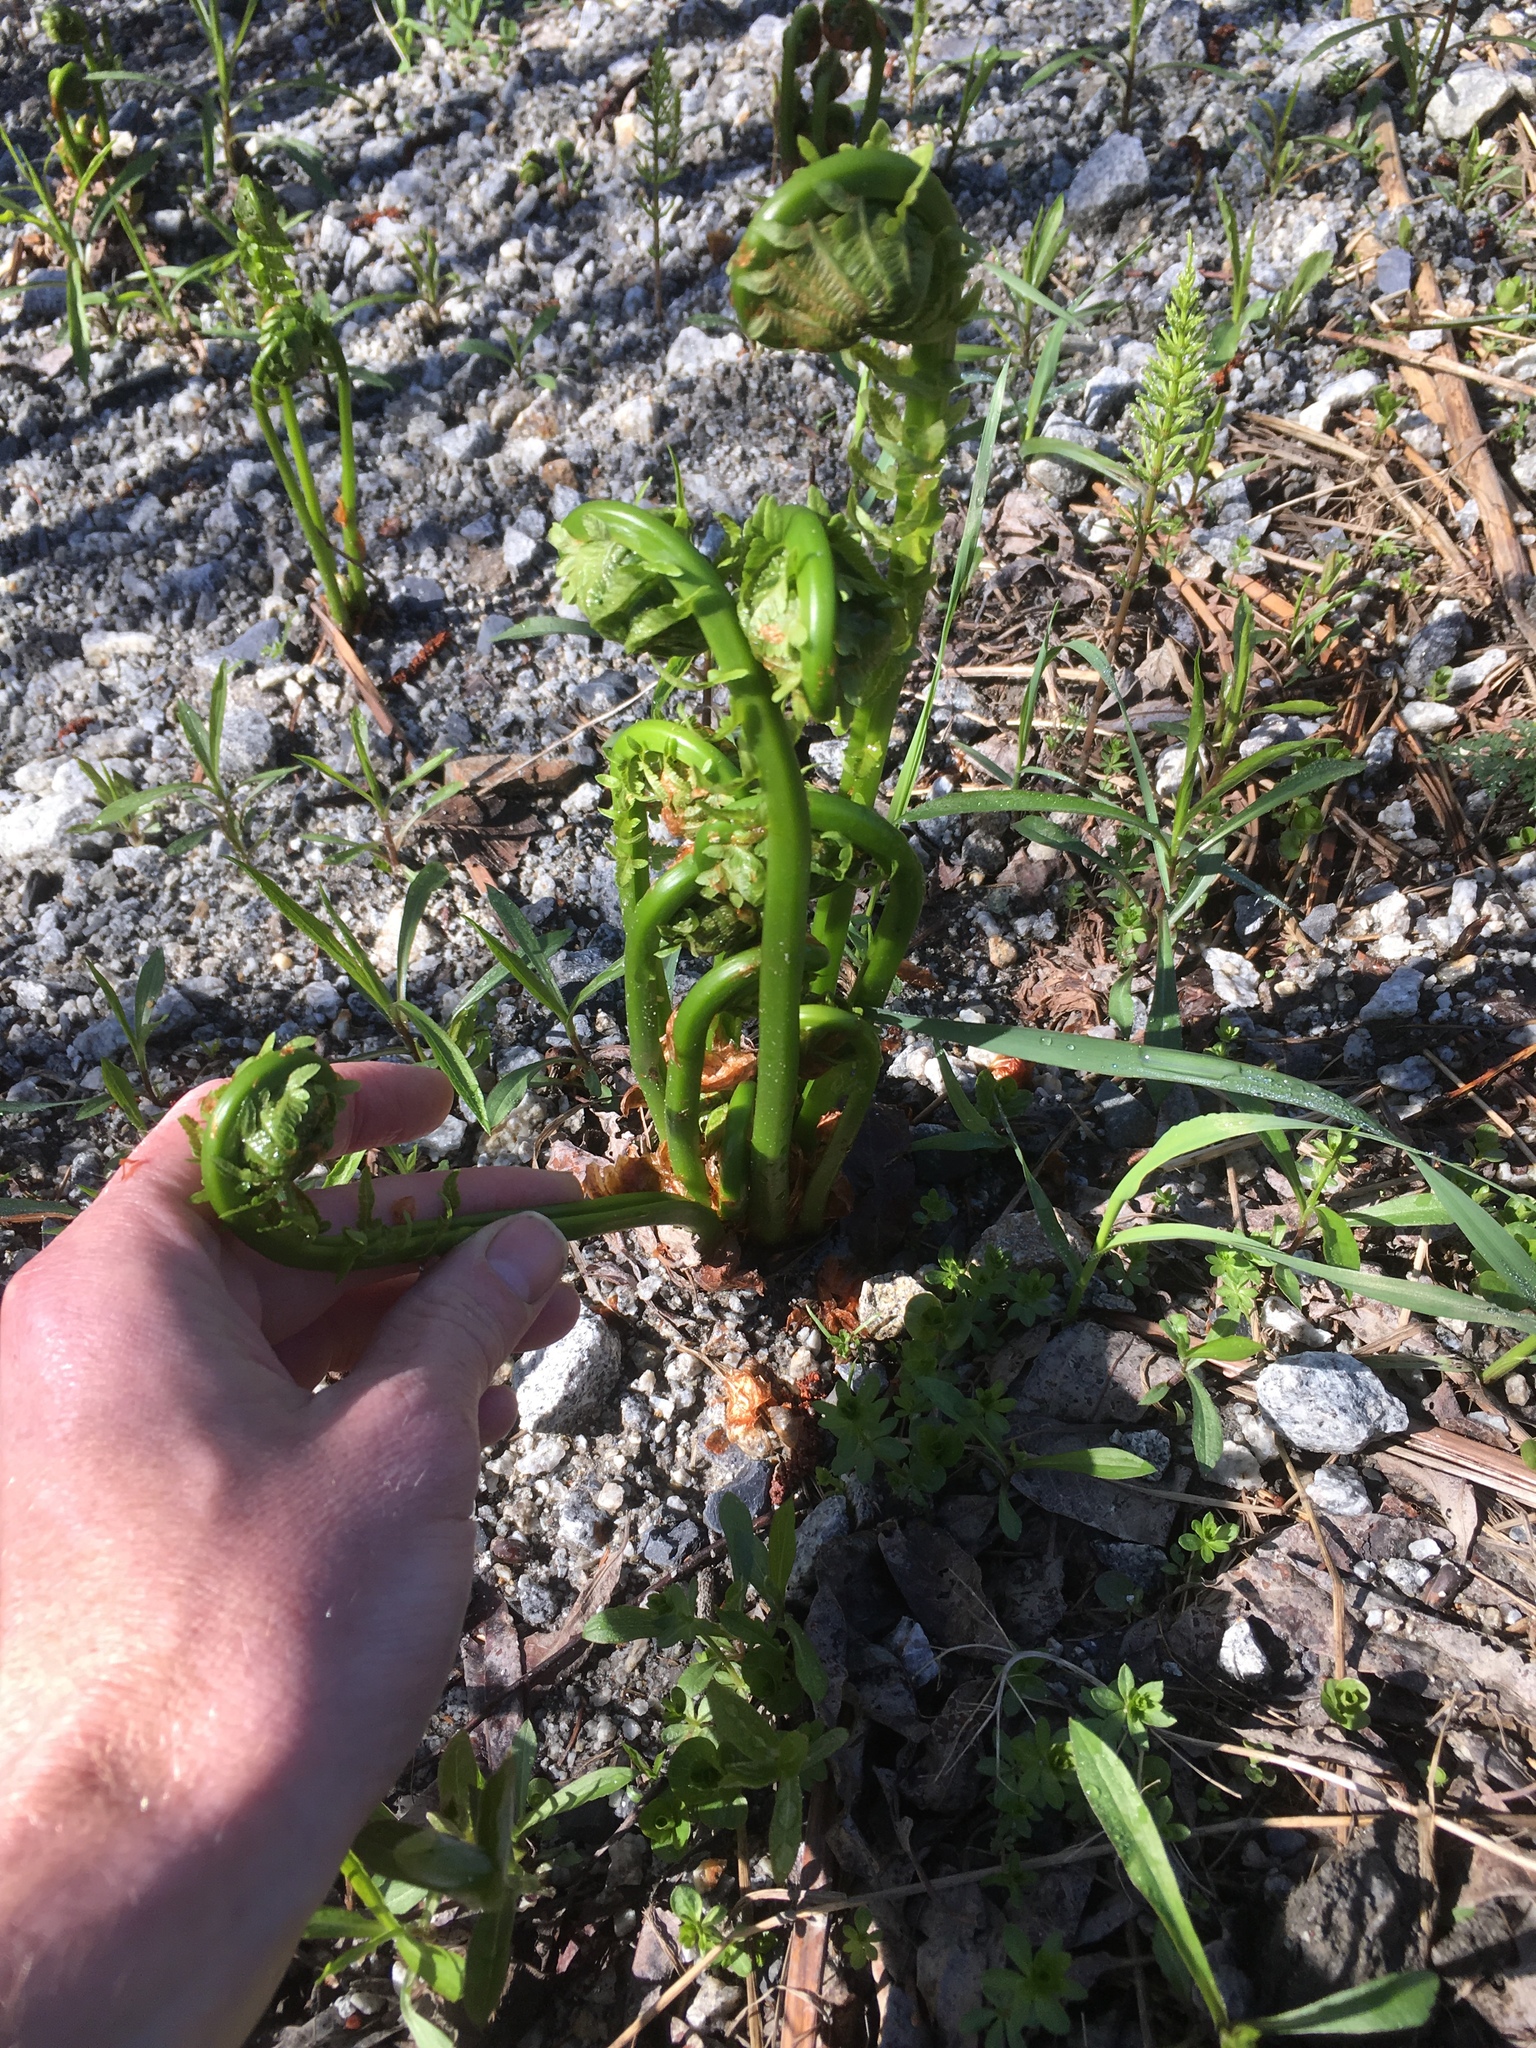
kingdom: Plantae
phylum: Tracheophyta
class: Polypodiopsida
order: Polypodiales
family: Onocleaceae
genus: Matteuccia
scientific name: Matteuccia struthiopteris
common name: Ostrich fern
